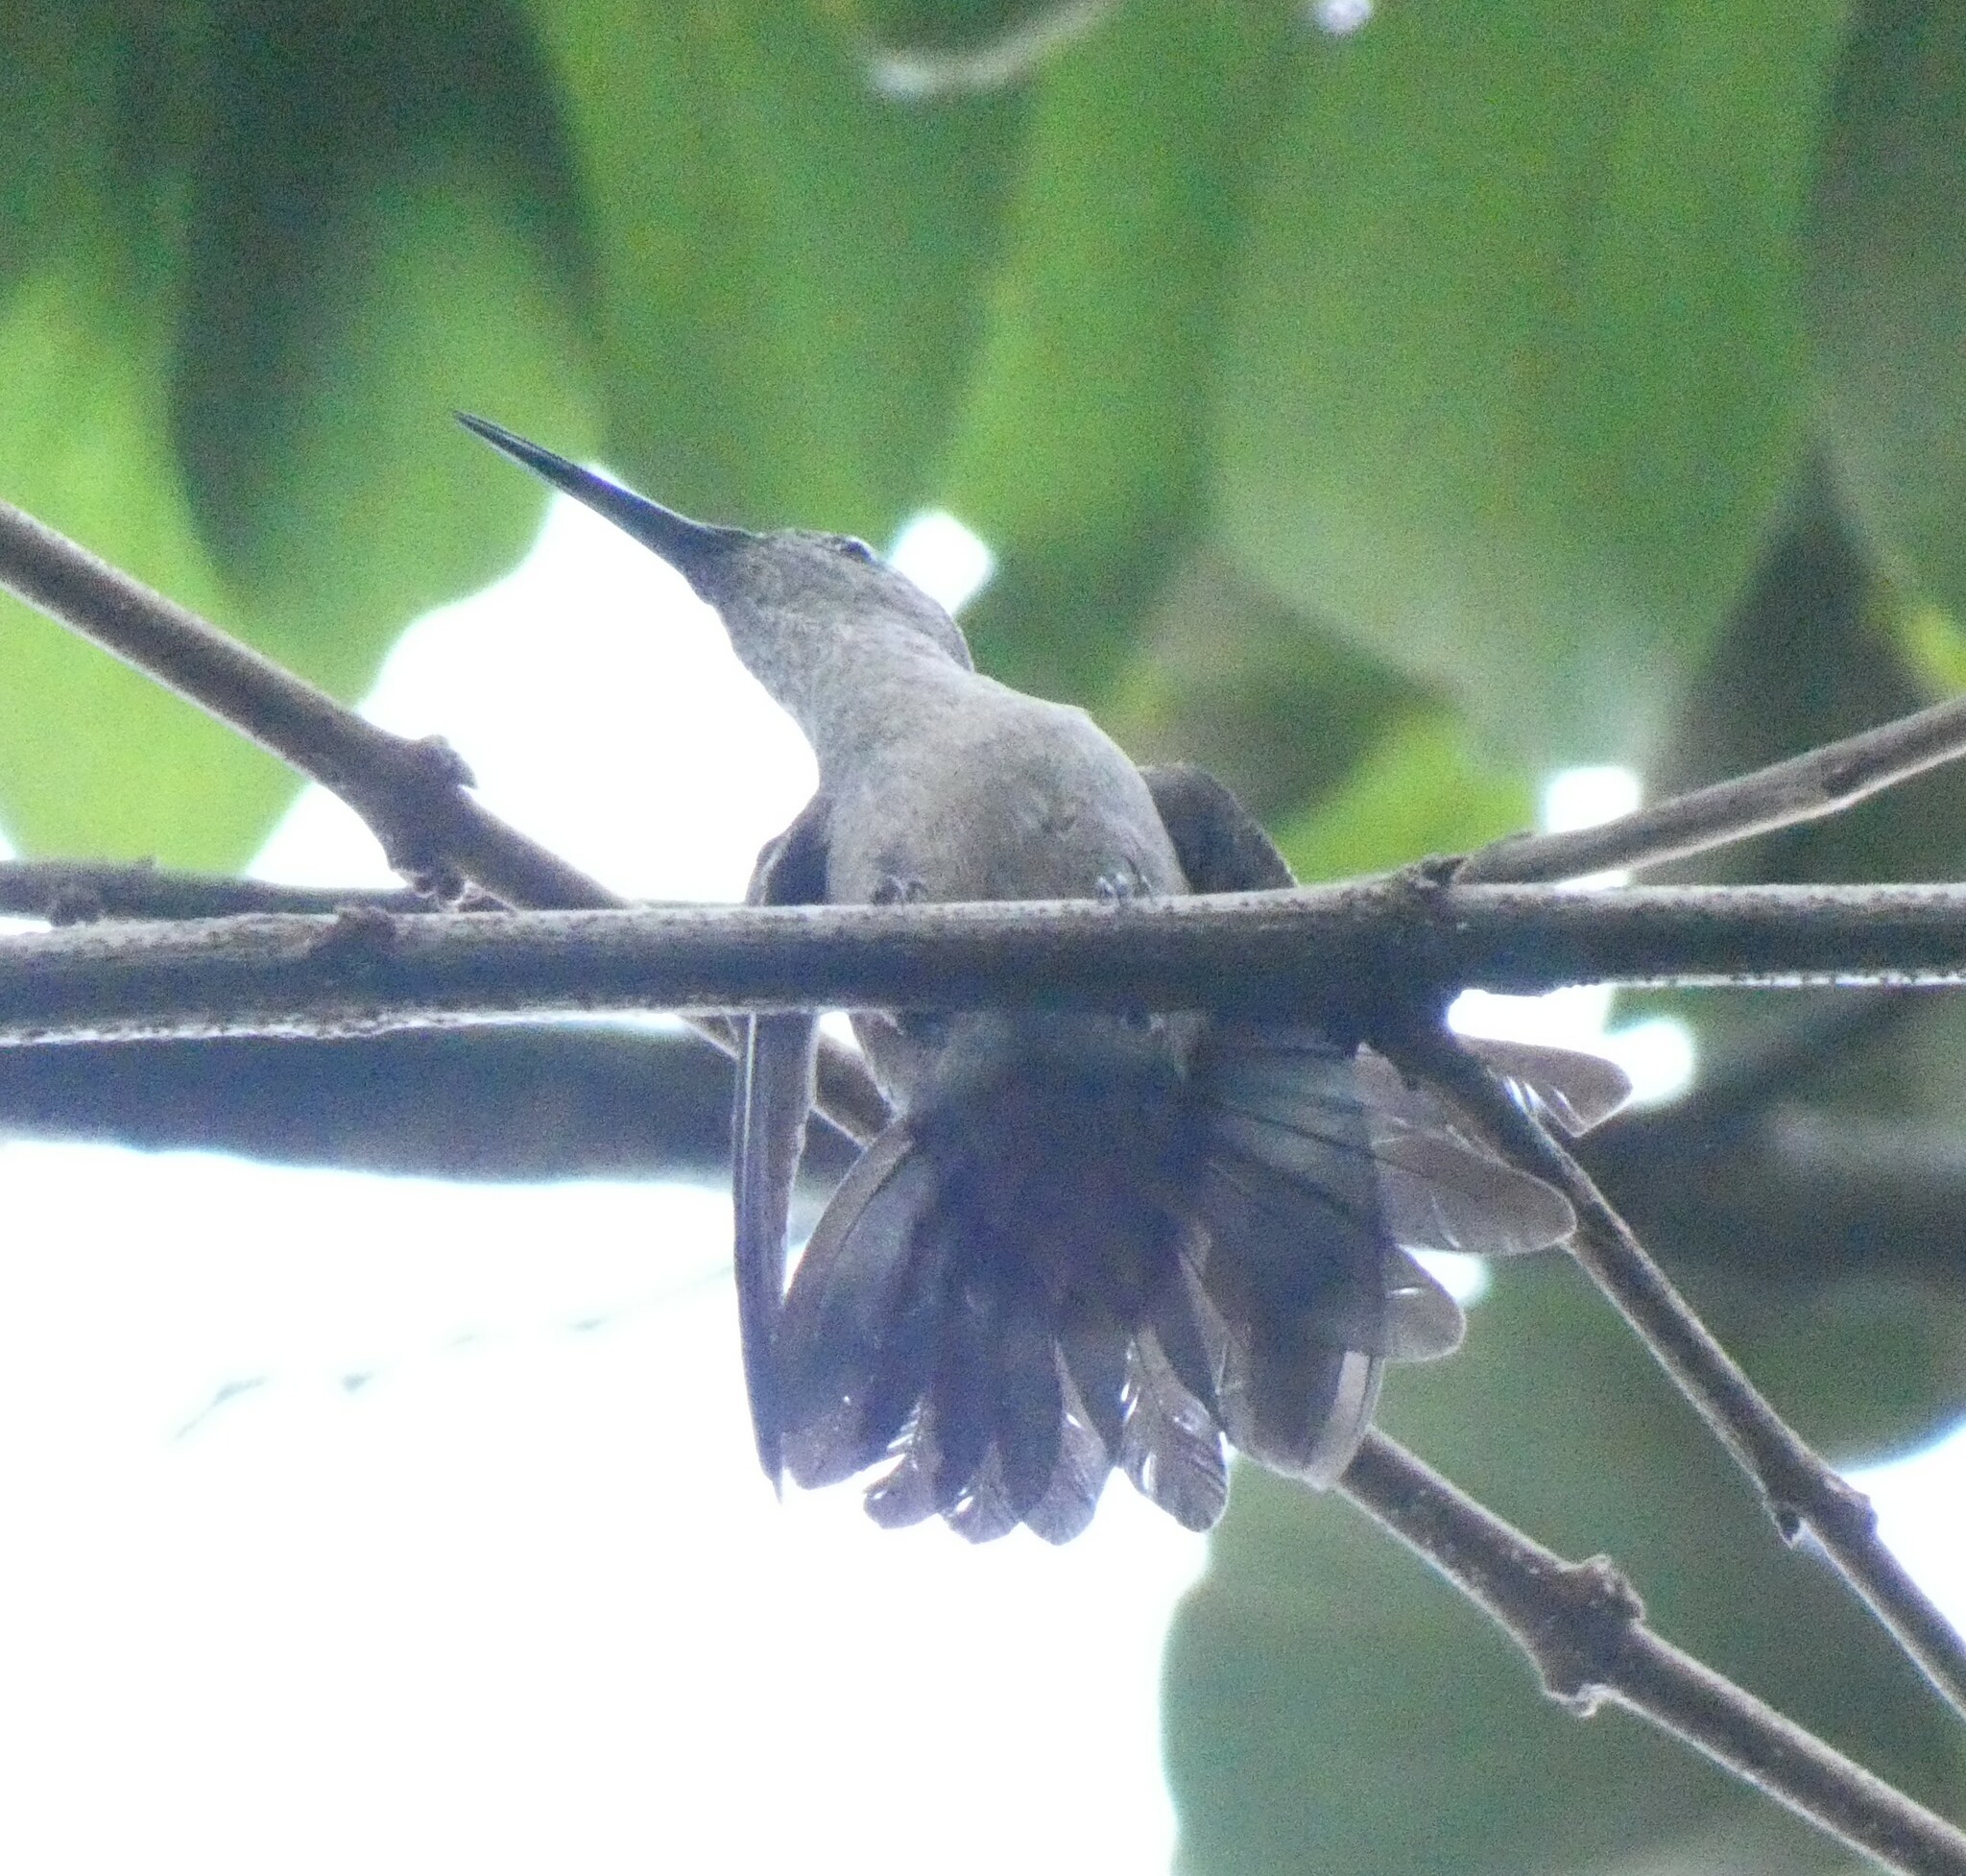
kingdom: Animalia
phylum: Chordata
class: Aves
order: Apodiformes
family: Trochilidae
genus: Eupetomena
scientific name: Eupetomena cirrochloris
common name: Sombre hummingbird
